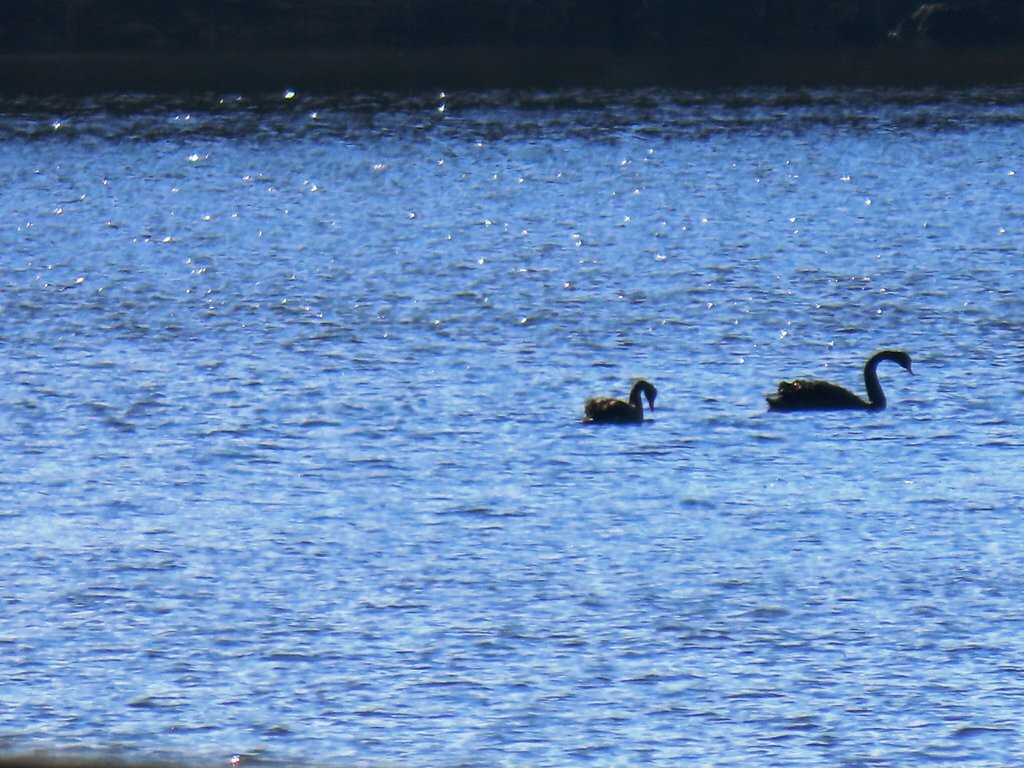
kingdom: Animalia
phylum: Chordata
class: Aves
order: Anseriformes
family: Anatidae
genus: Cygnus
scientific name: Cygnus atratus
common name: Black swan
